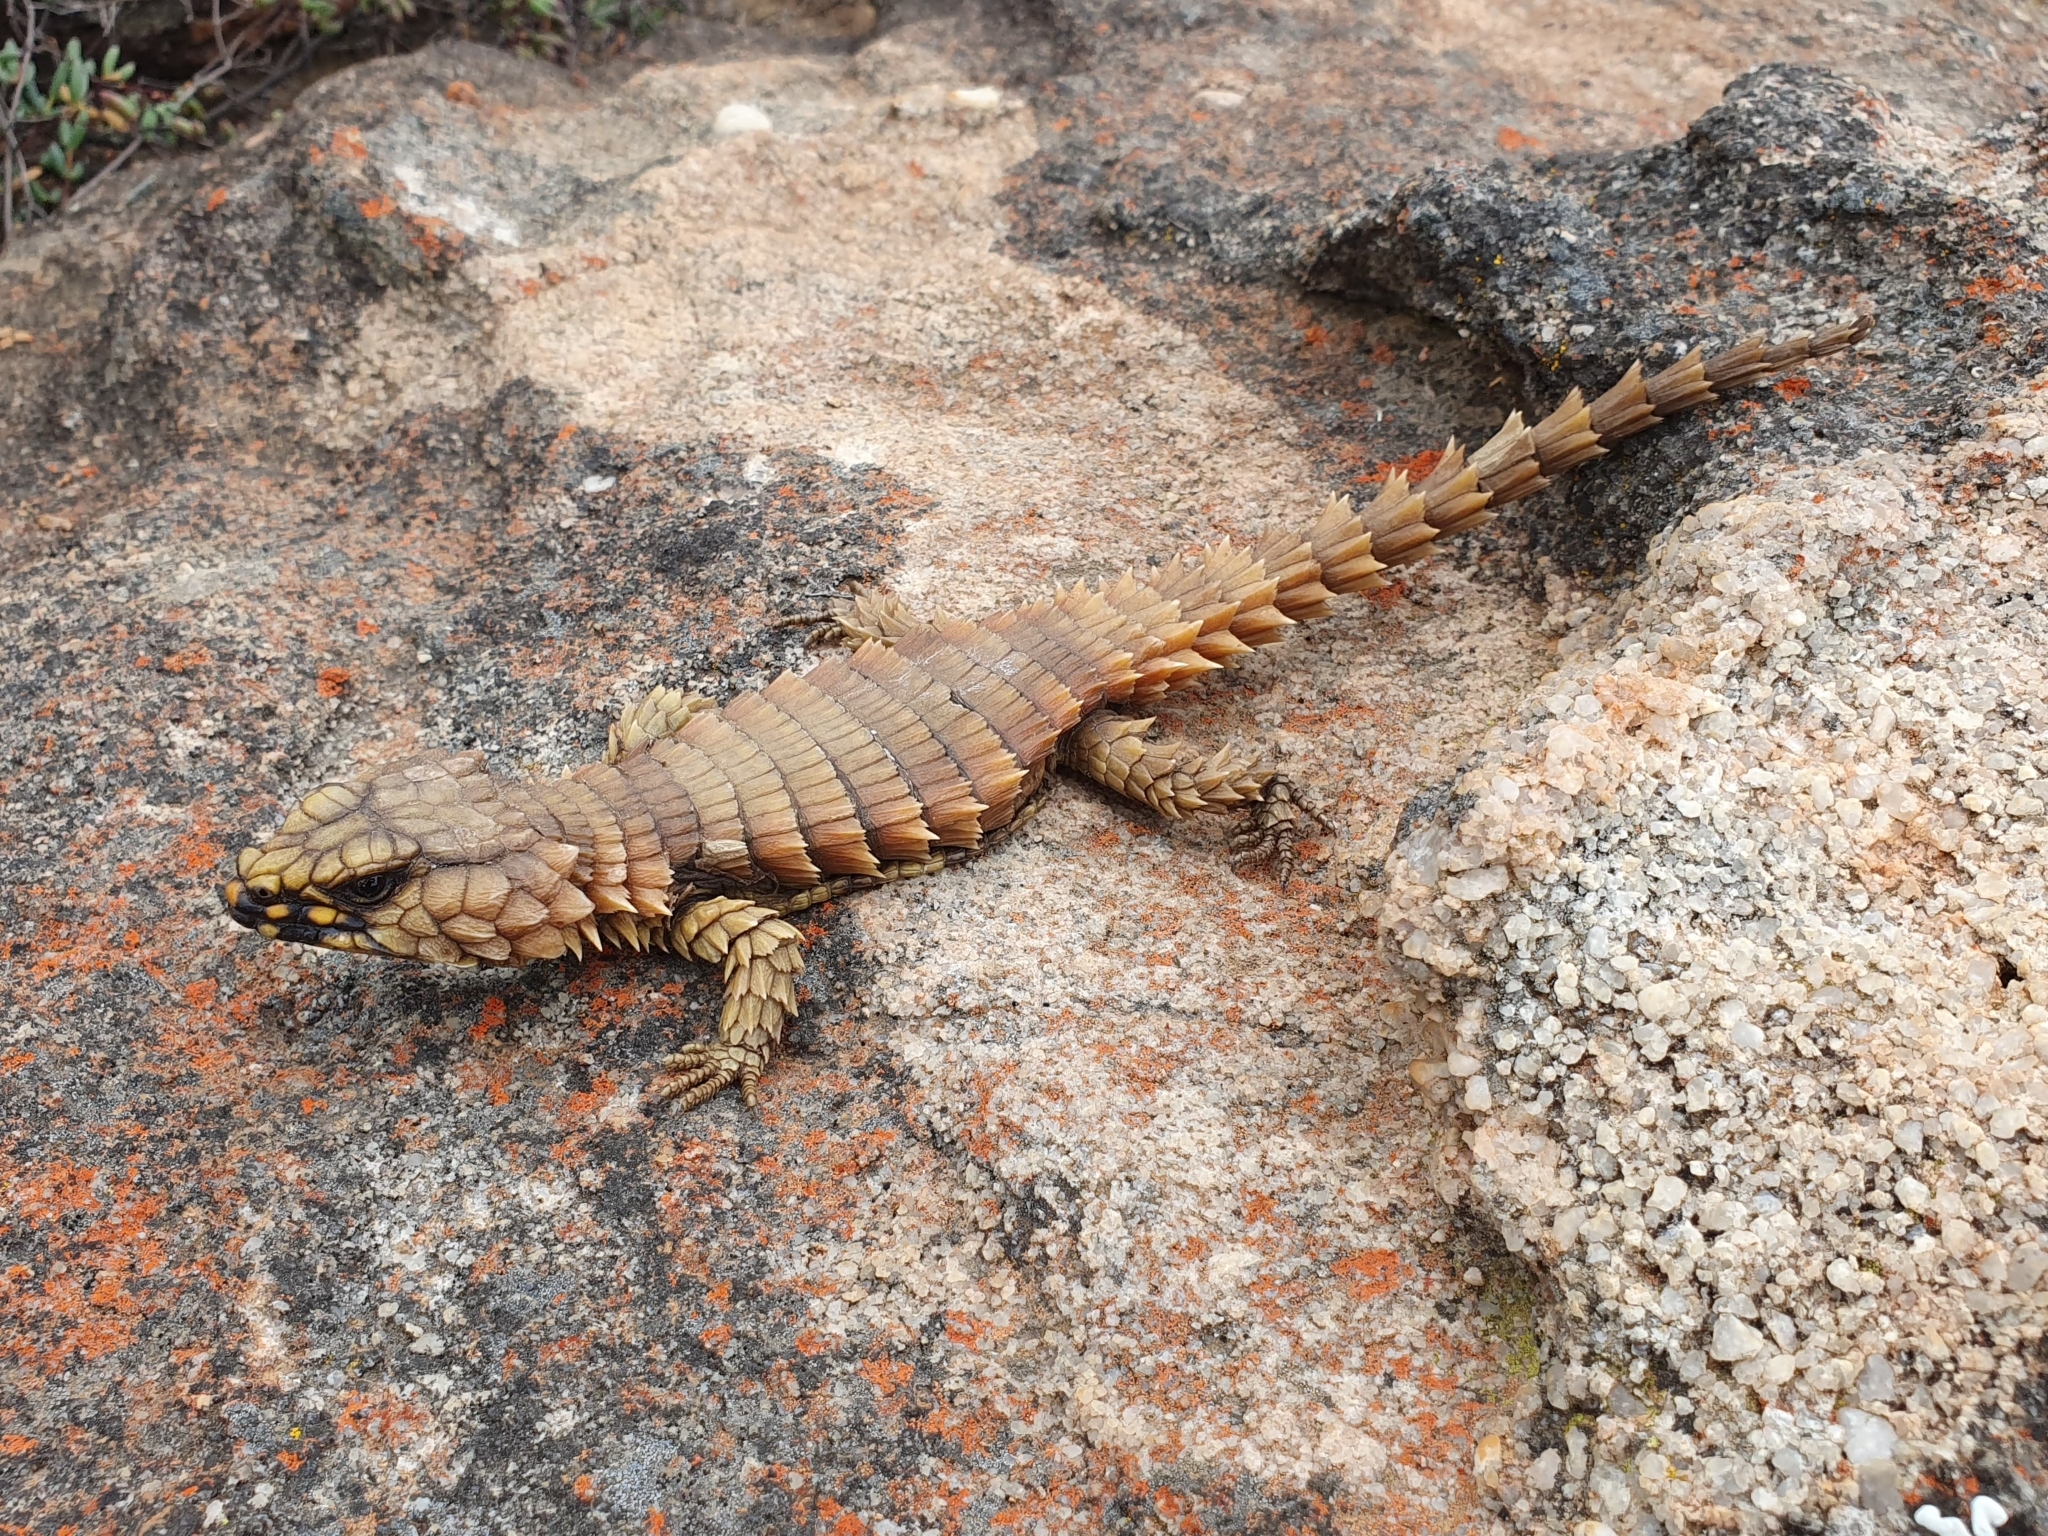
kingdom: Animalia
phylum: Chordata
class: Squamata
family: Cordylidae
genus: Ouroborus
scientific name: Ouroborus cataphractus
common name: Armadillo girdled lizard
